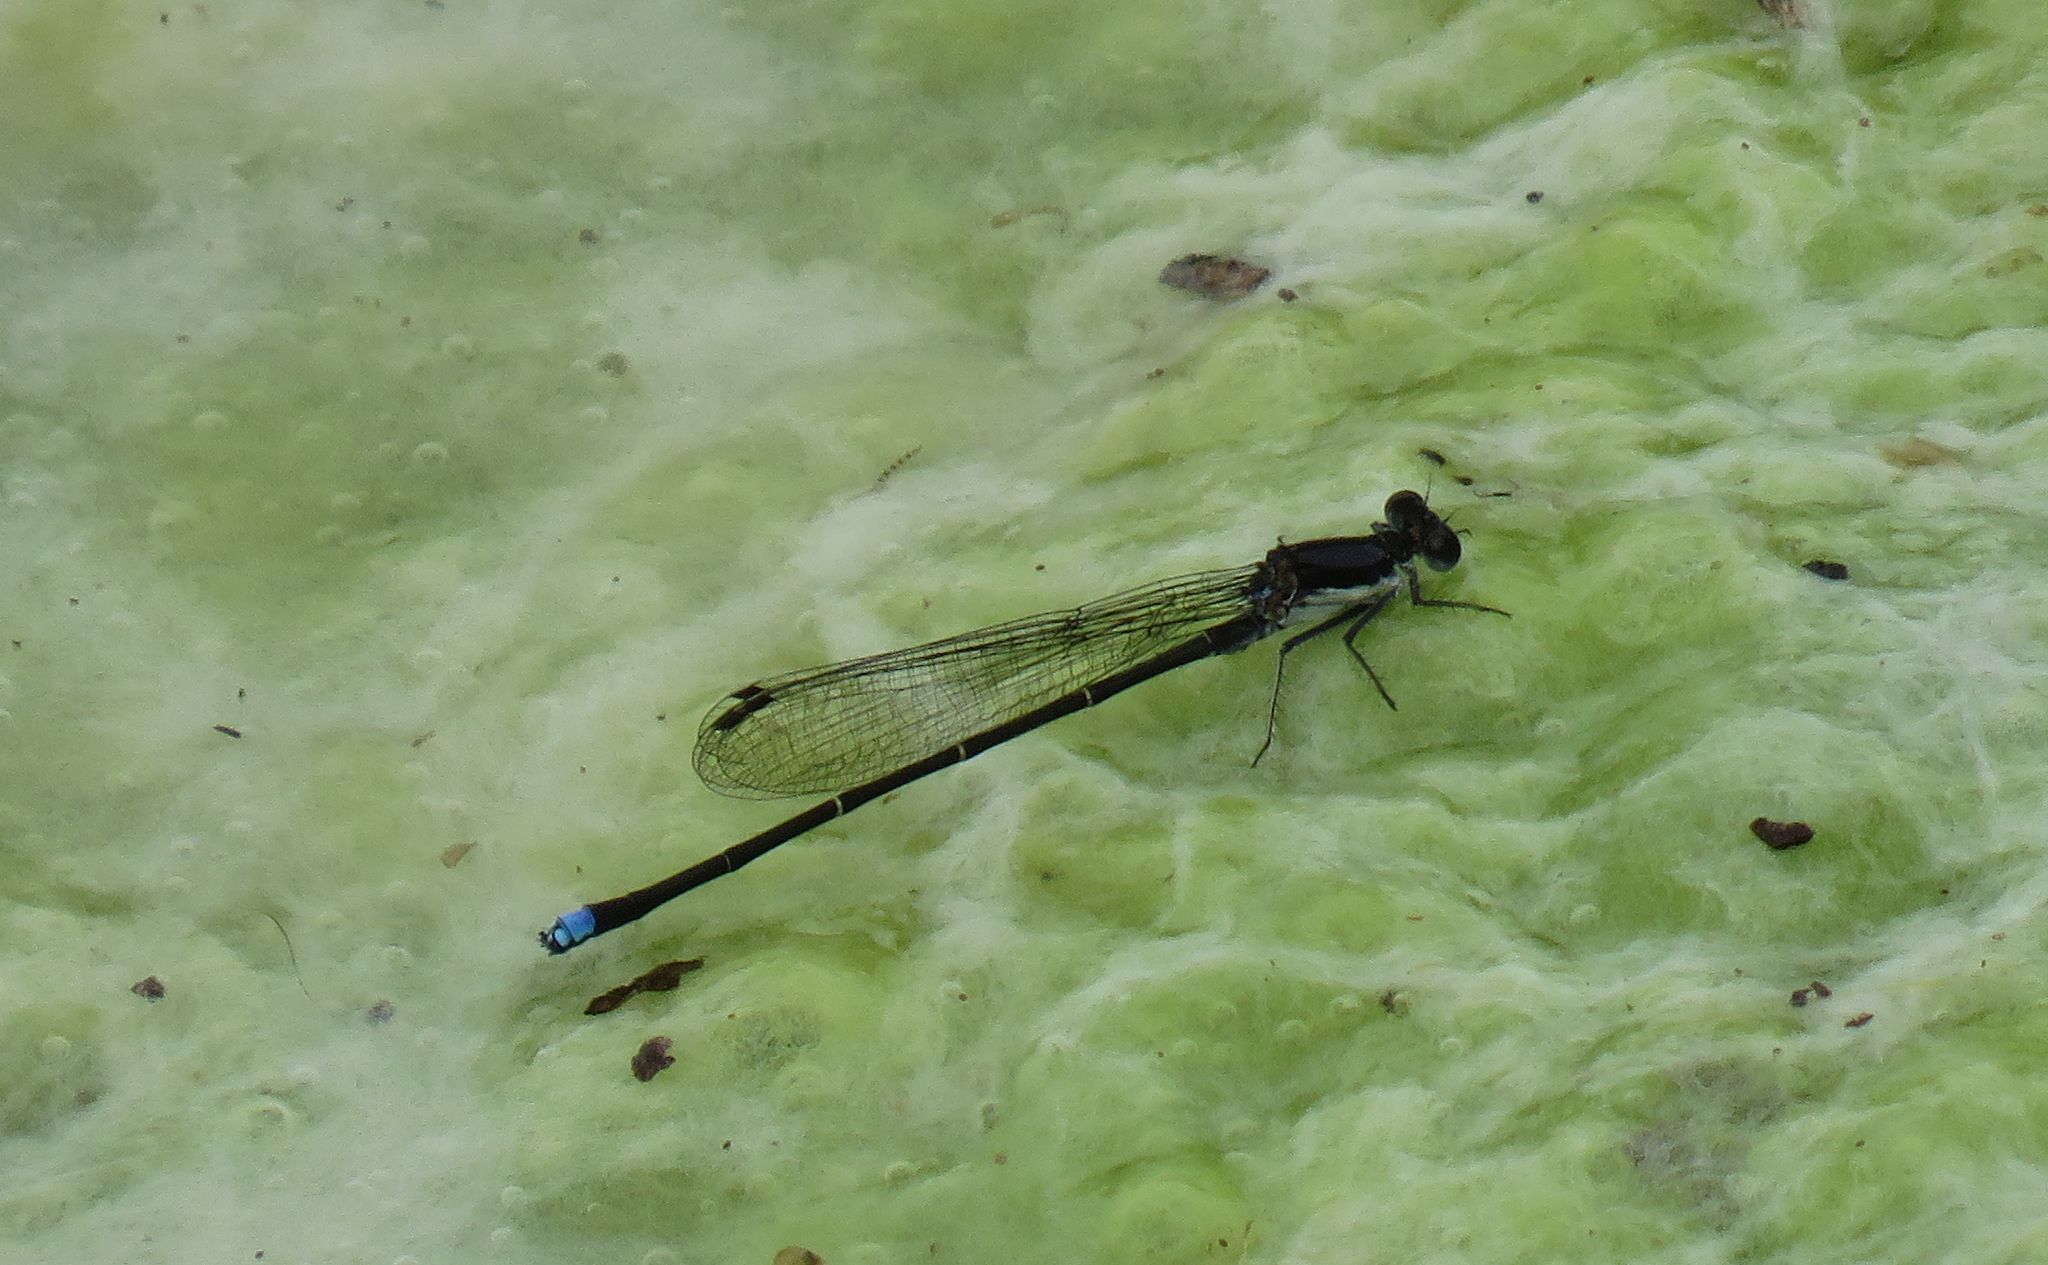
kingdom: Animalia
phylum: Arthropoda
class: Insecta
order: Odonata
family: Coenagrionidae
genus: Argia
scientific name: Argia tibialis
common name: Blue-tipped dancer
